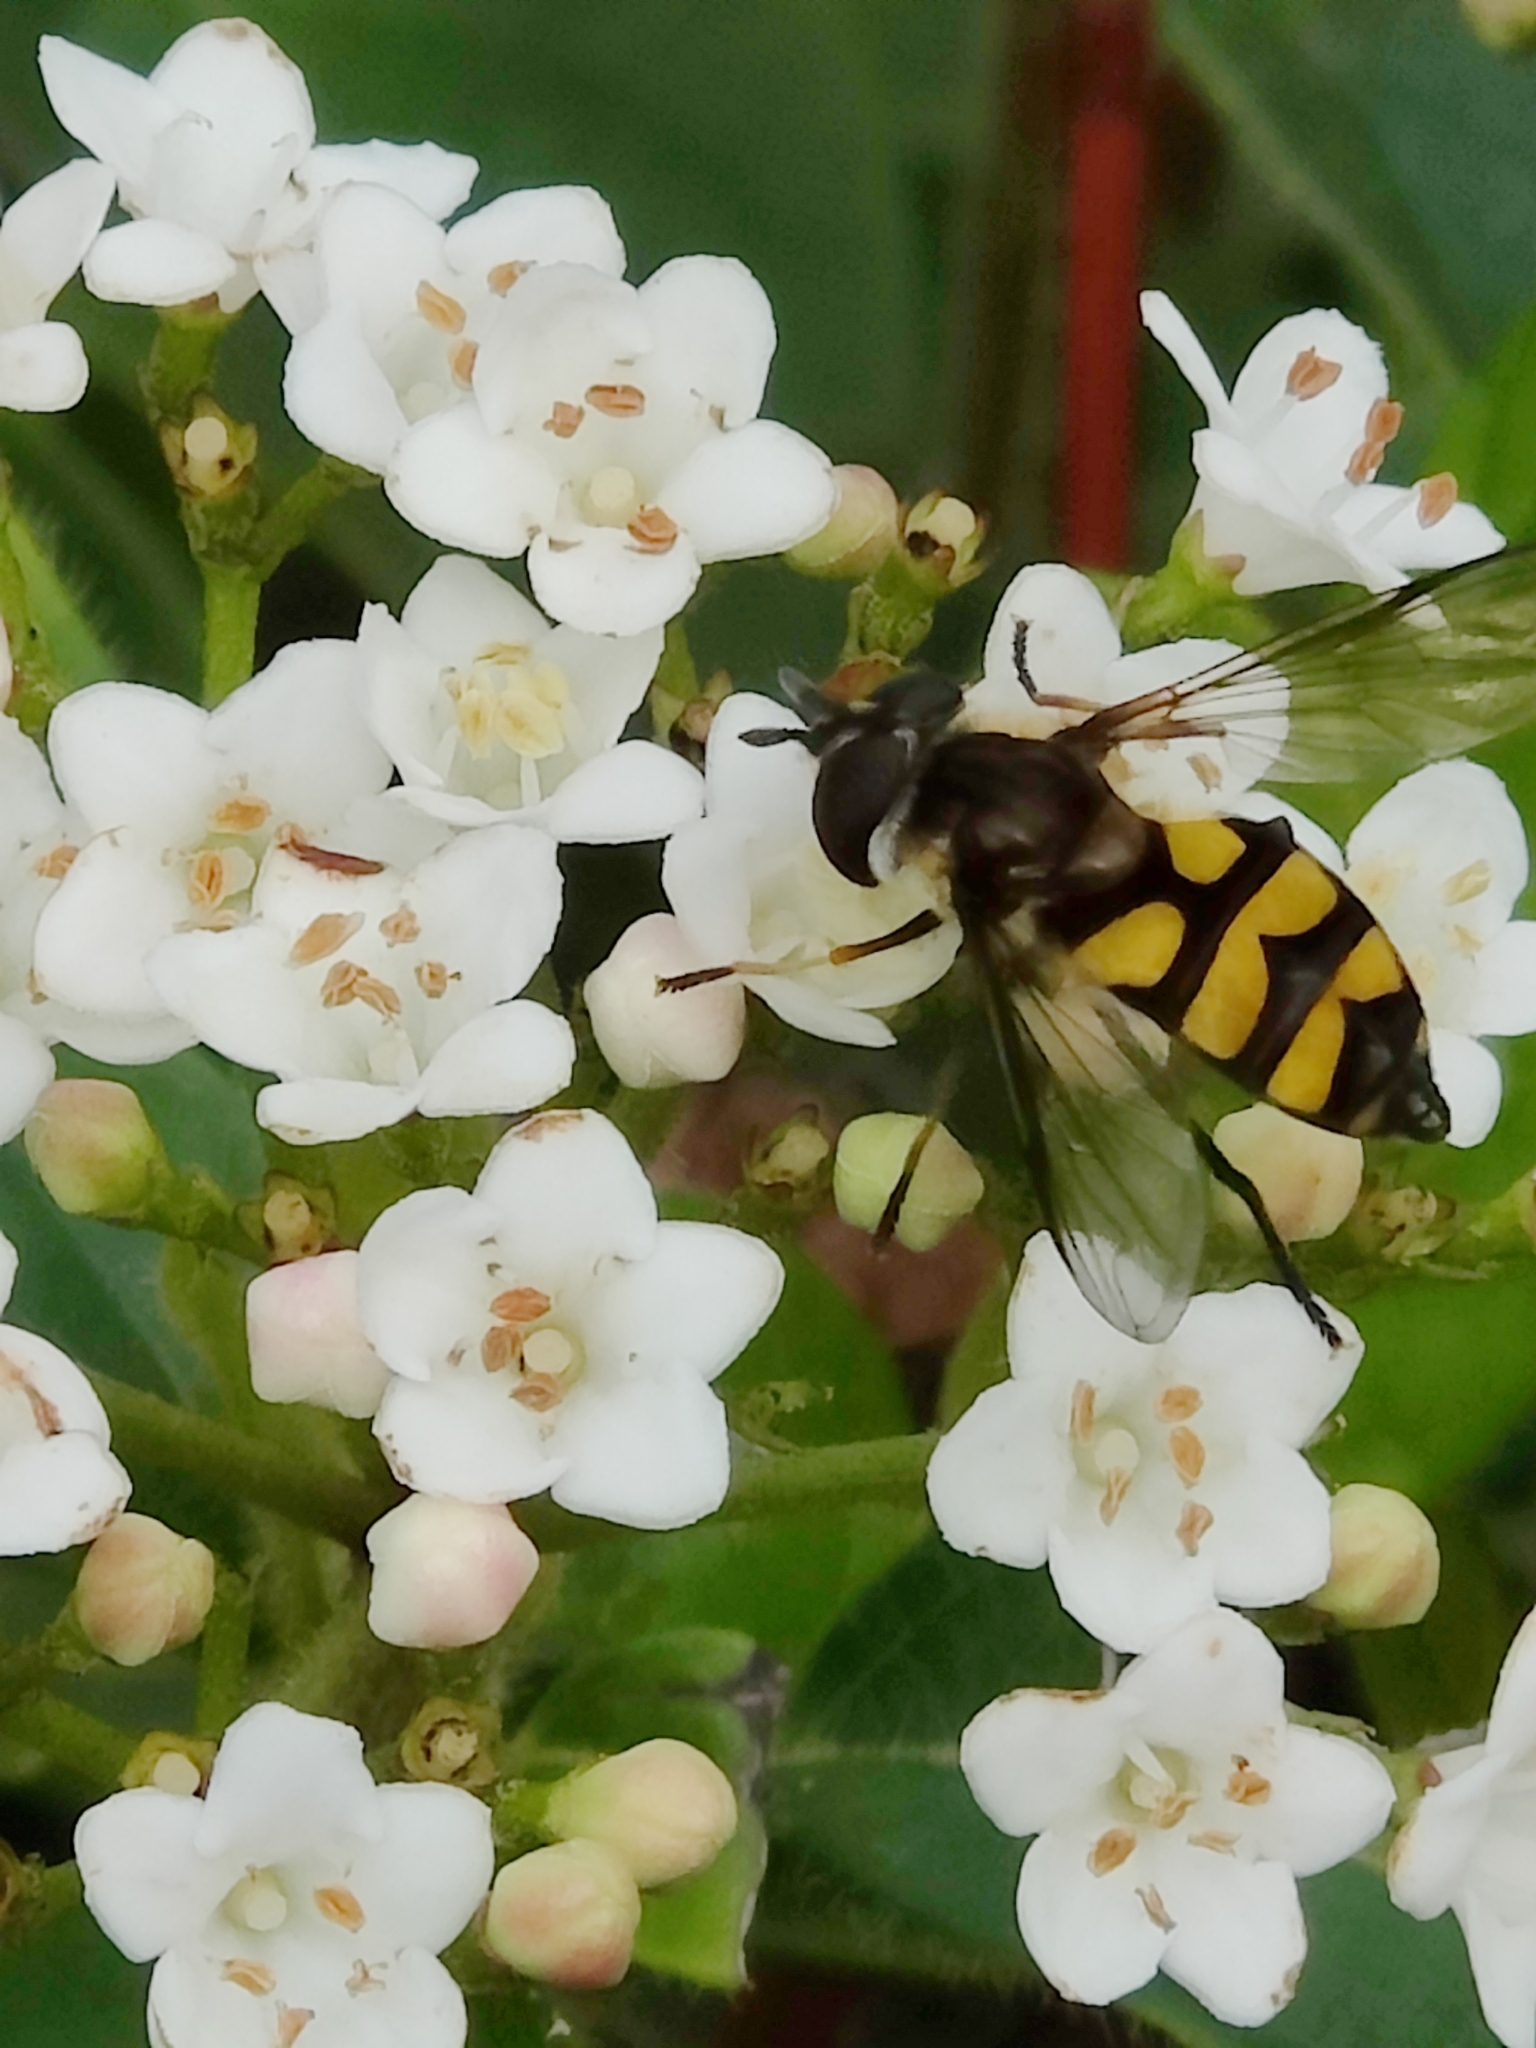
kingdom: Animalia
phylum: Arthropoda
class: Insecta
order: Diptera
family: Syrphidae
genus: Didea
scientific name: Didea fasciata
